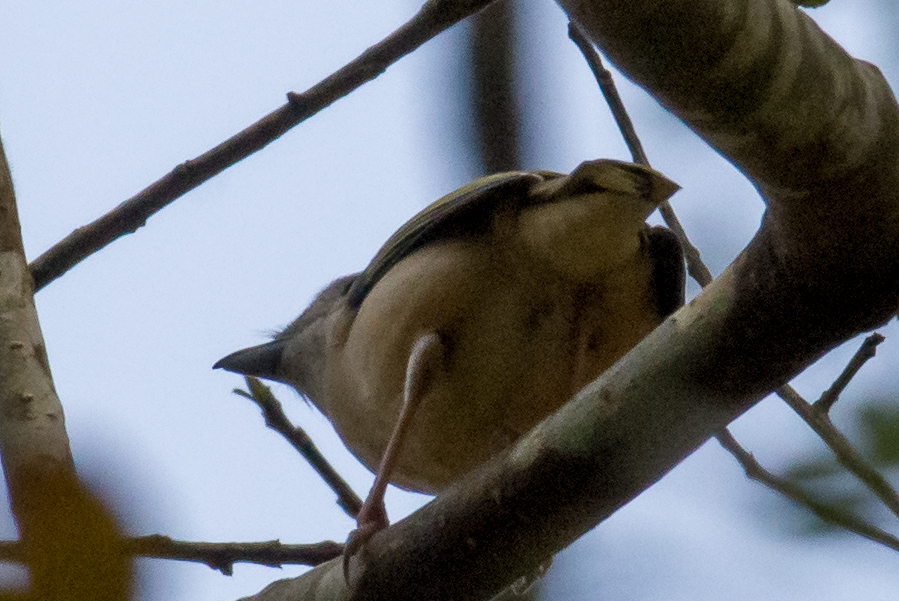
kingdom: Animalia
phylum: Chordata
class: Aves
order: Passeriformes
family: Vireonidae
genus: Pteruthius
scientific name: Pteruthius aeralatus
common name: Blyth's shrike-babbler
